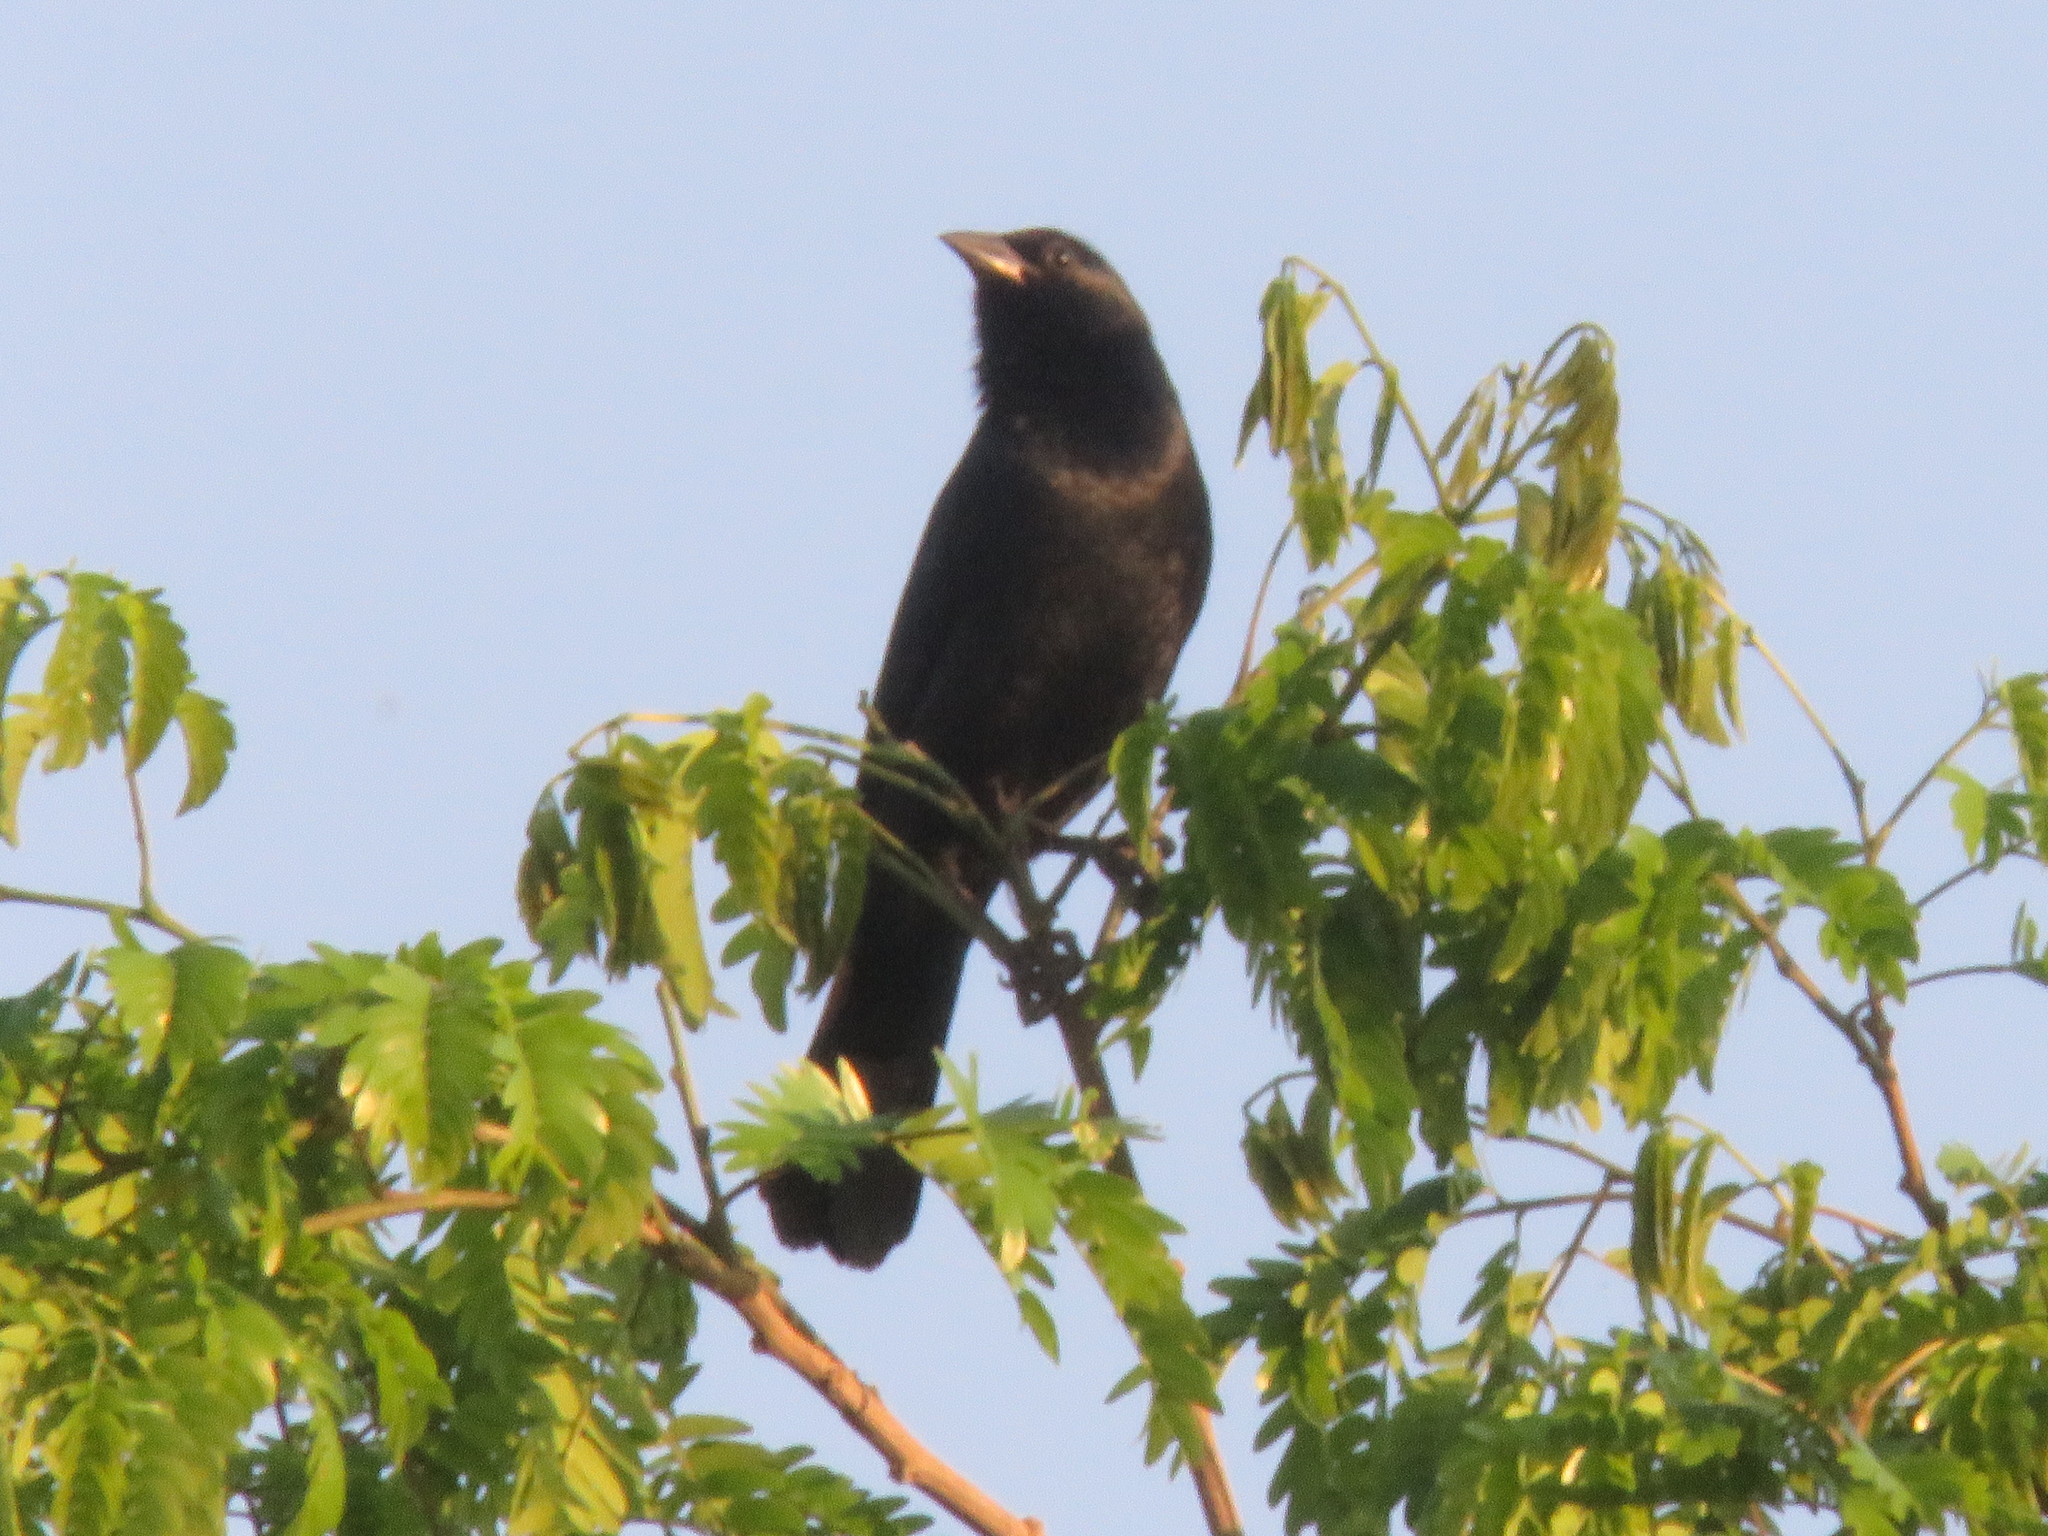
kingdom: Animalia
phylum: Chordata
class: Aves
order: Passeriformes
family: Icteridae
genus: Gnorimopsar
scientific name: Gnorimopsar chopi
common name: Chopi blackbird
